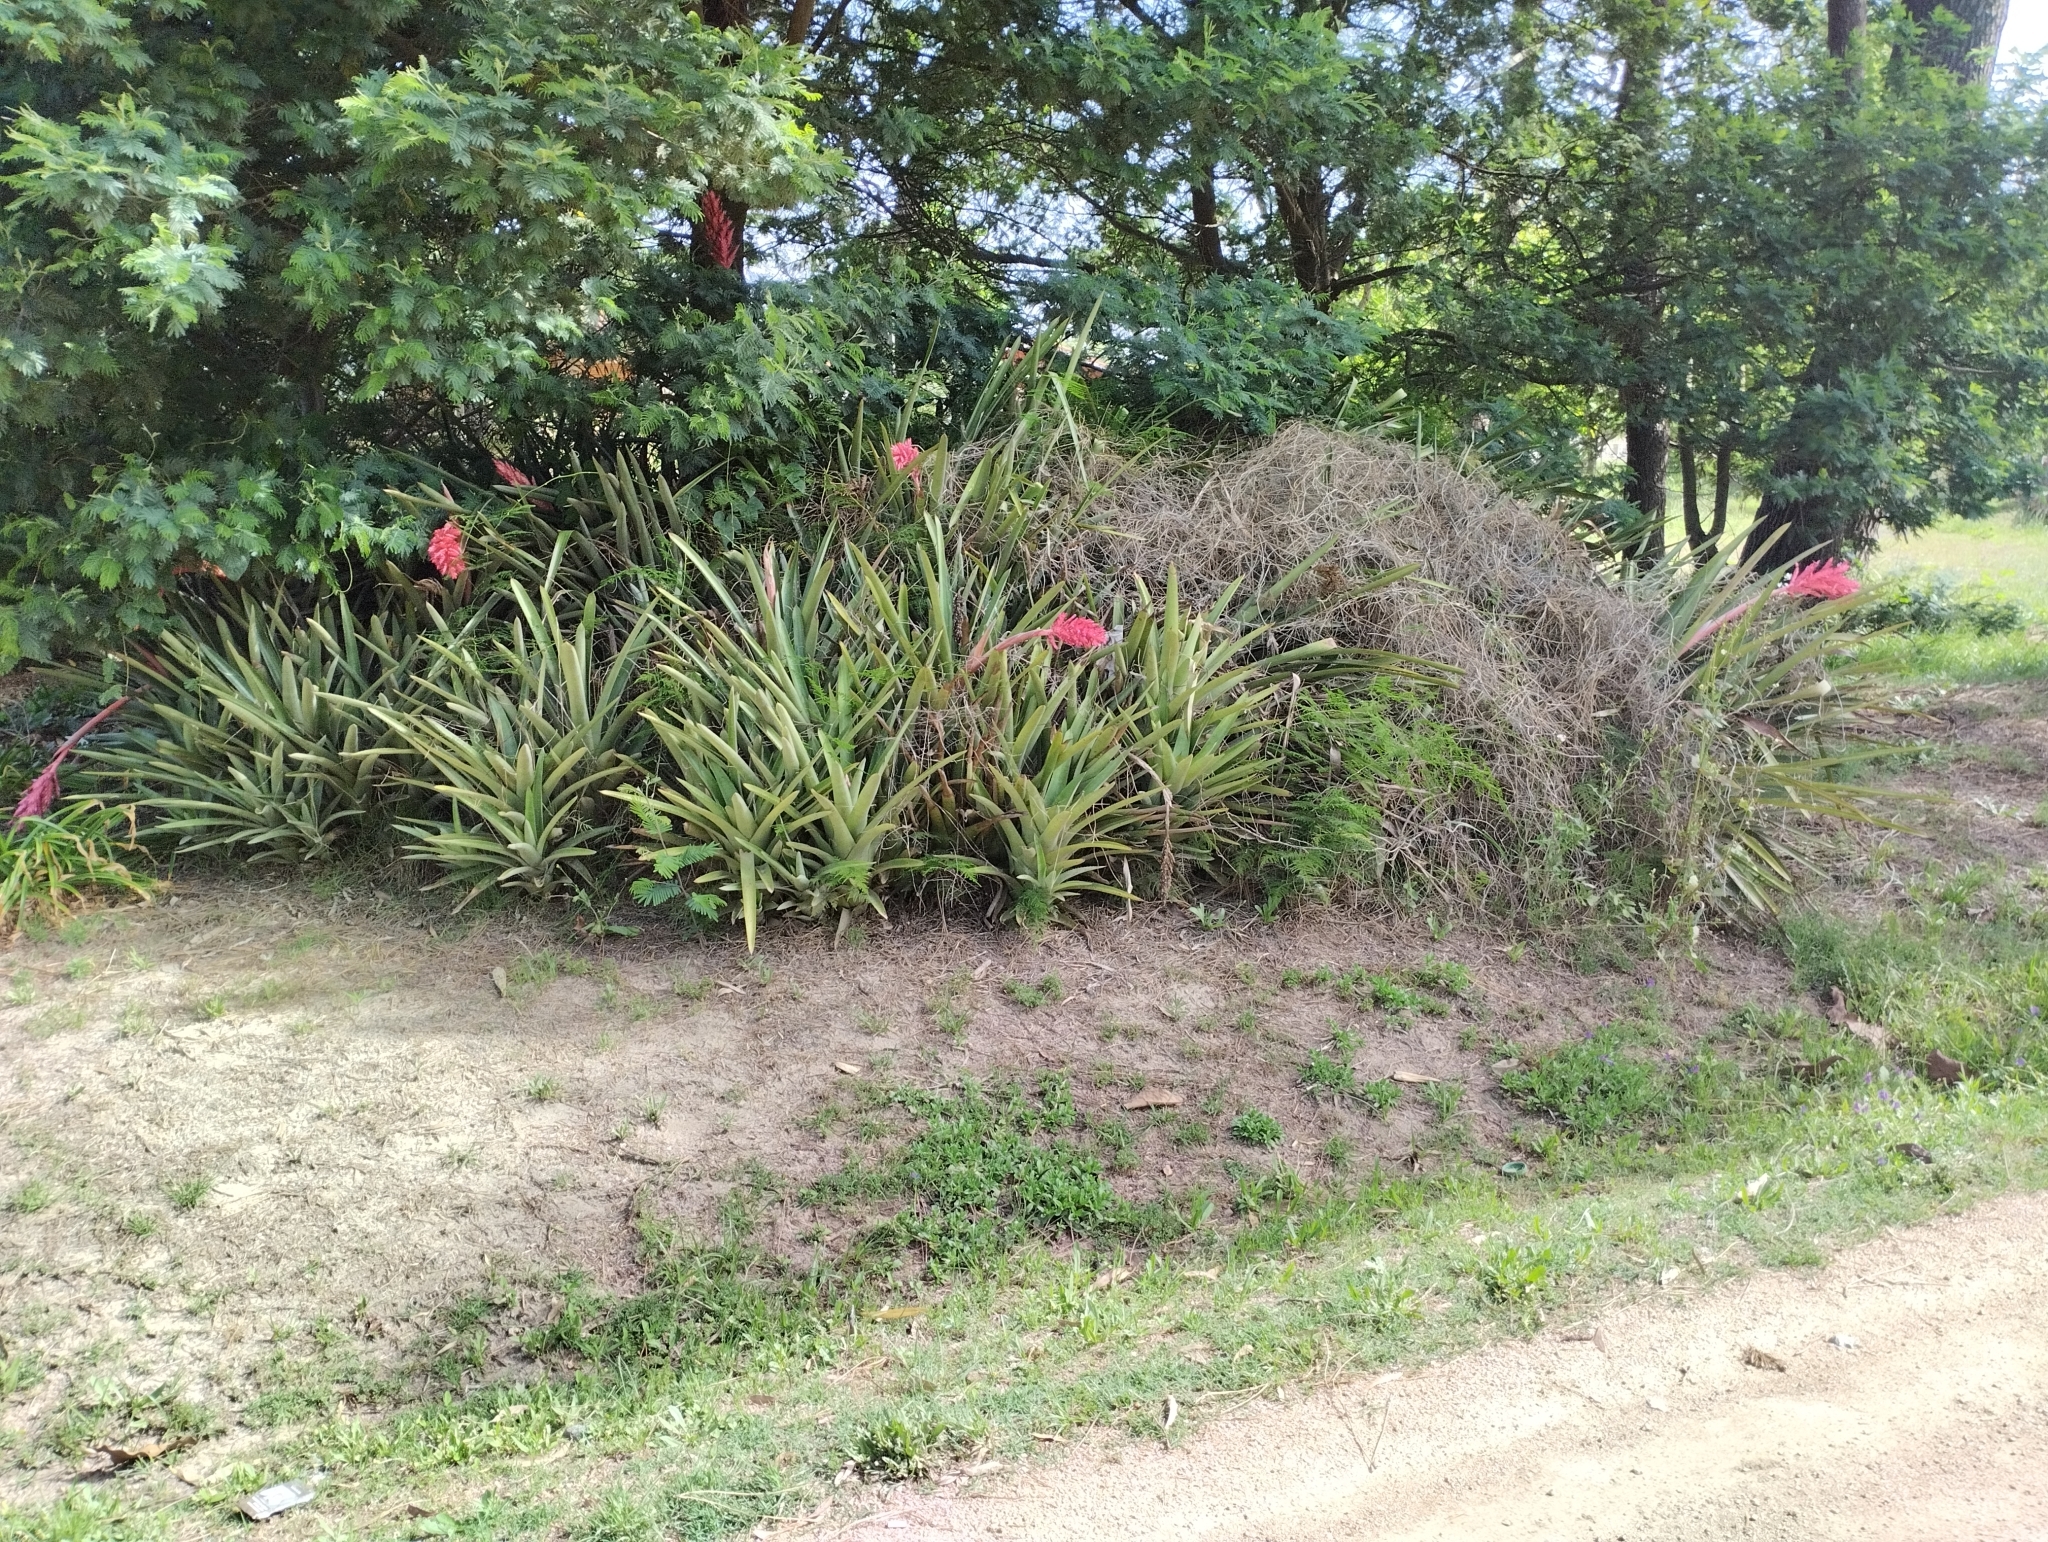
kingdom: Plantae
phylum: Tracheophyta
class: Liliopsida
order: Poales
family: Bromeliaceae
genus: Aechmea
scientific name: Aechmea distichantha
